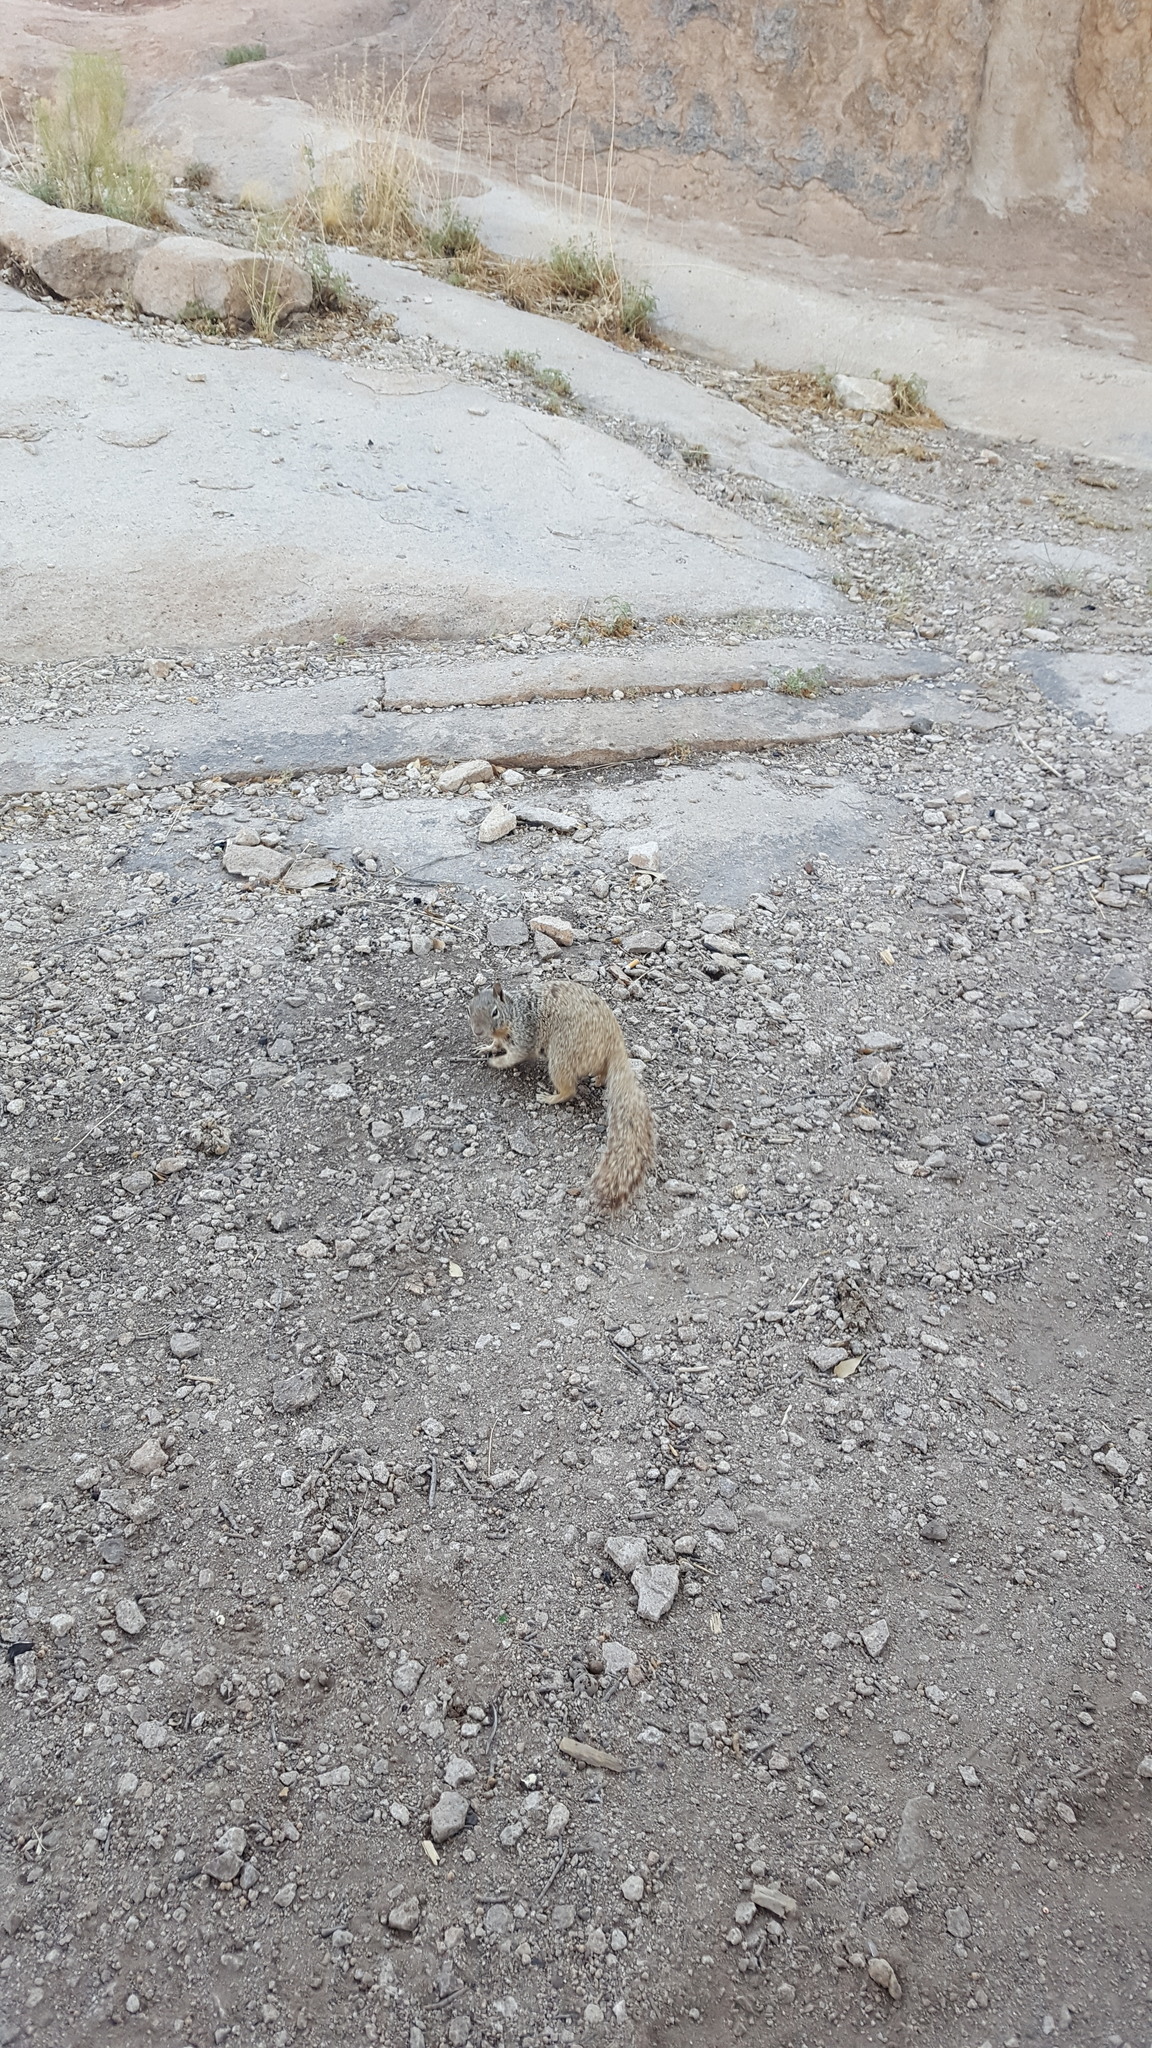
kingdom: Animalia
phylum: Chordata
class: Mammalia
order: Rodentia
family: Sciuridae
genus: Otospermophilus
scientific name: Otospermophilus variegatus
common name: Rock squirrel
